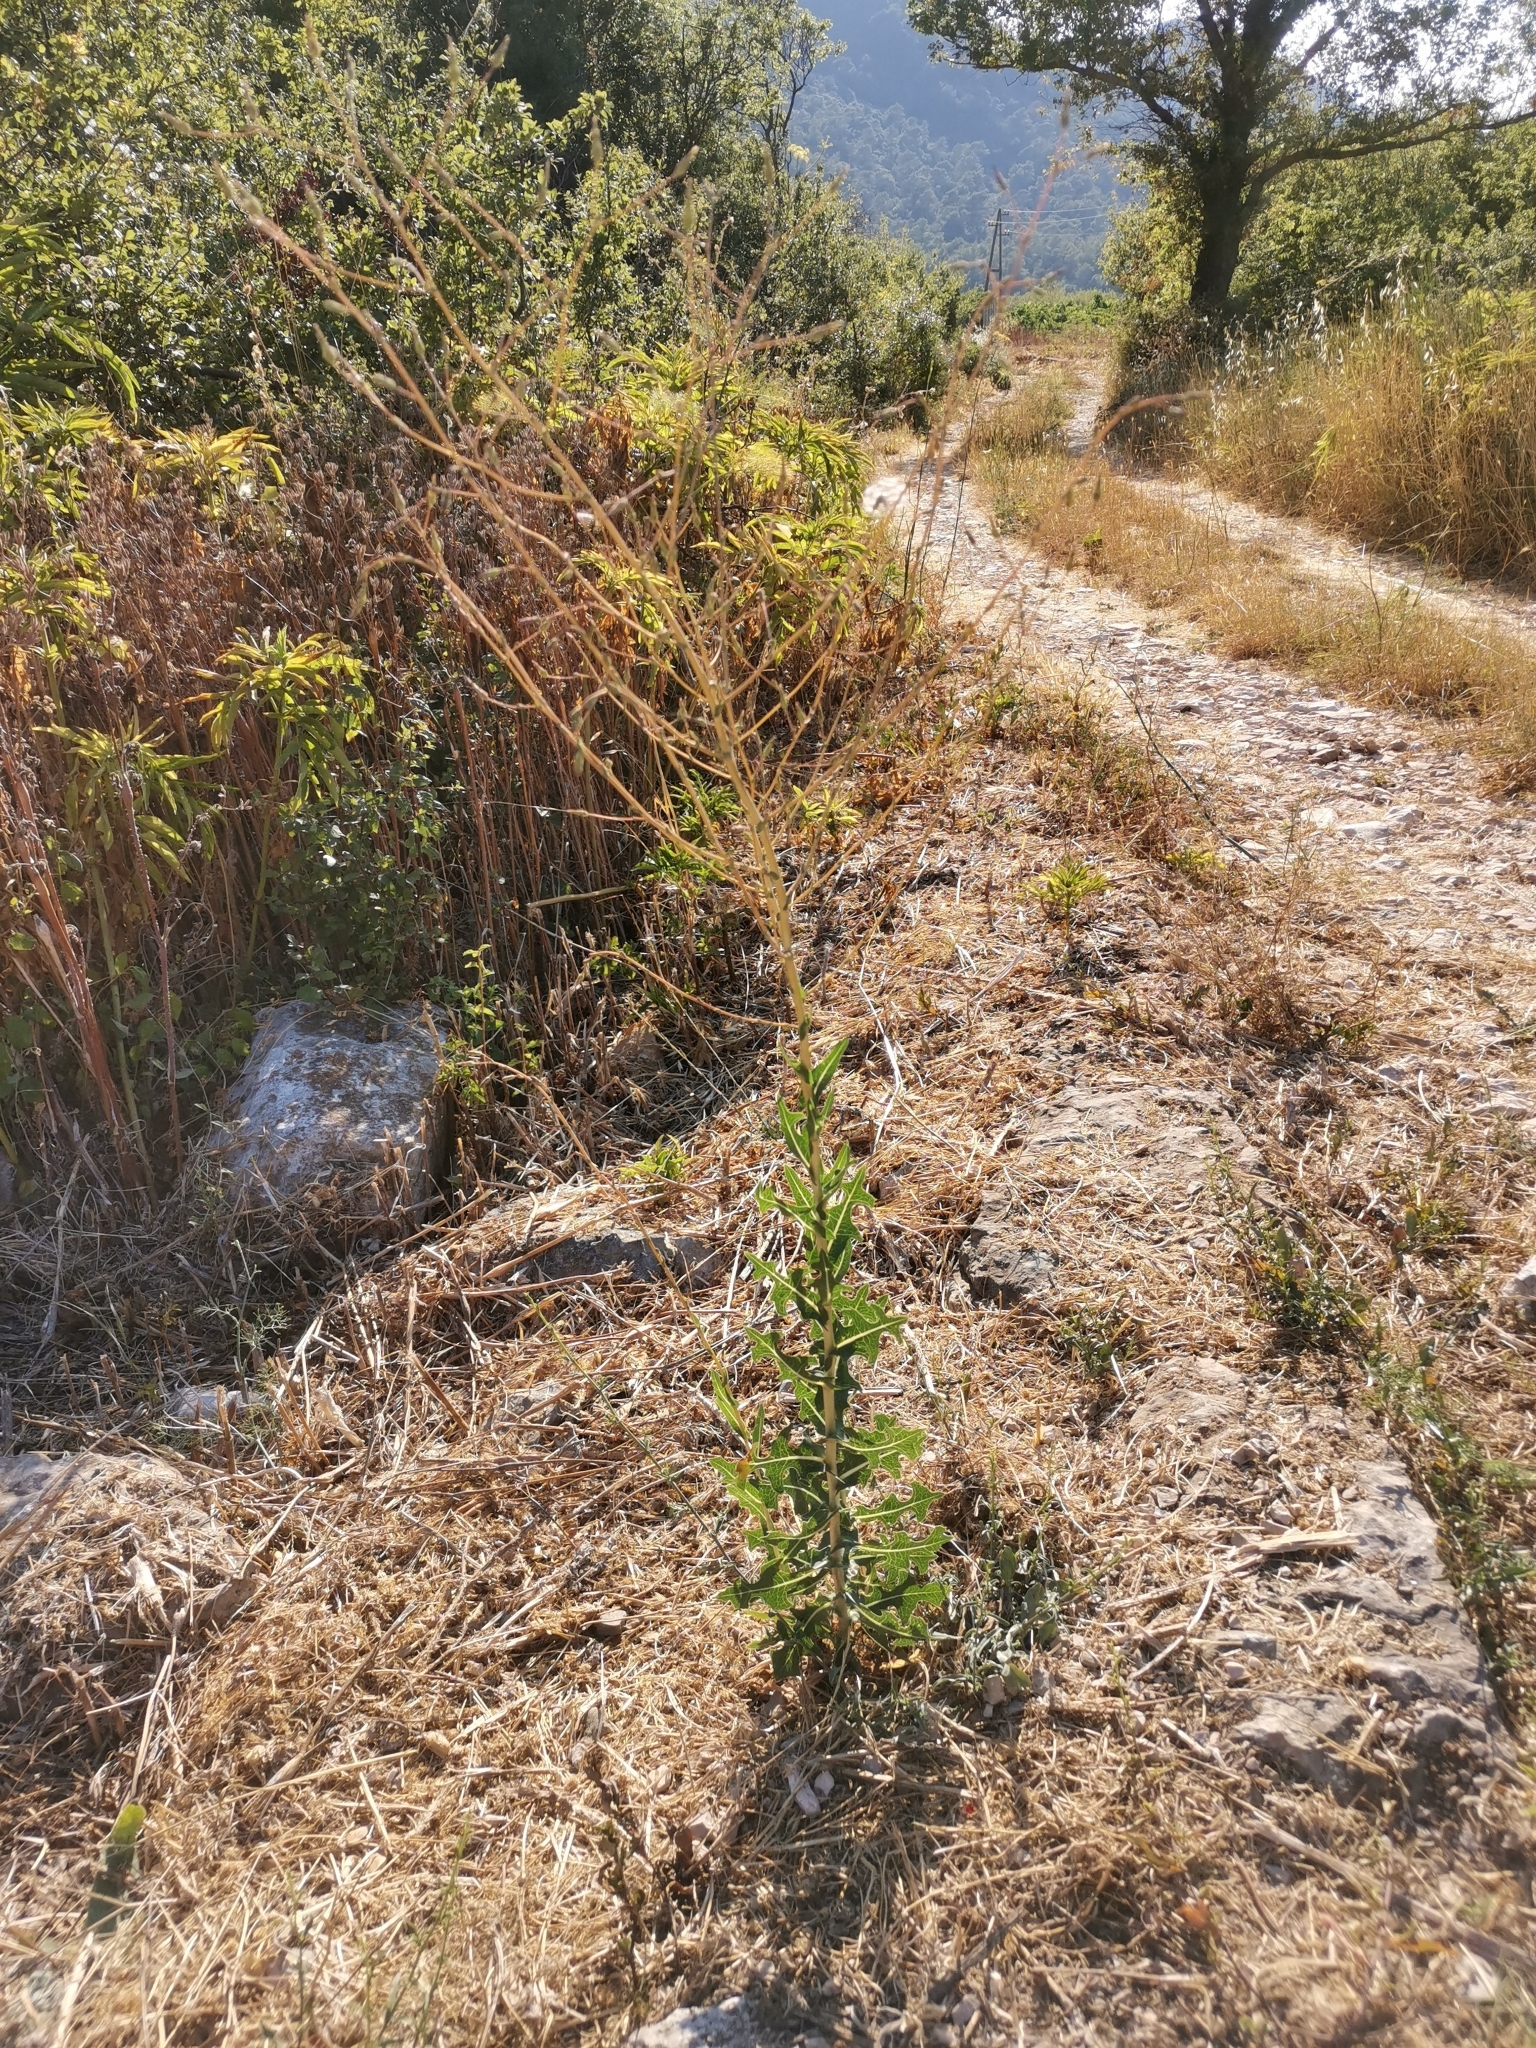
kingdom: Plantae
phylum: Tracheophyta
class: Magnoliopsida
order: Asterales
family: Asteraceae
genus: Lactuca
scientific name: Lactuca serriola
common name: Prickly lettuce
